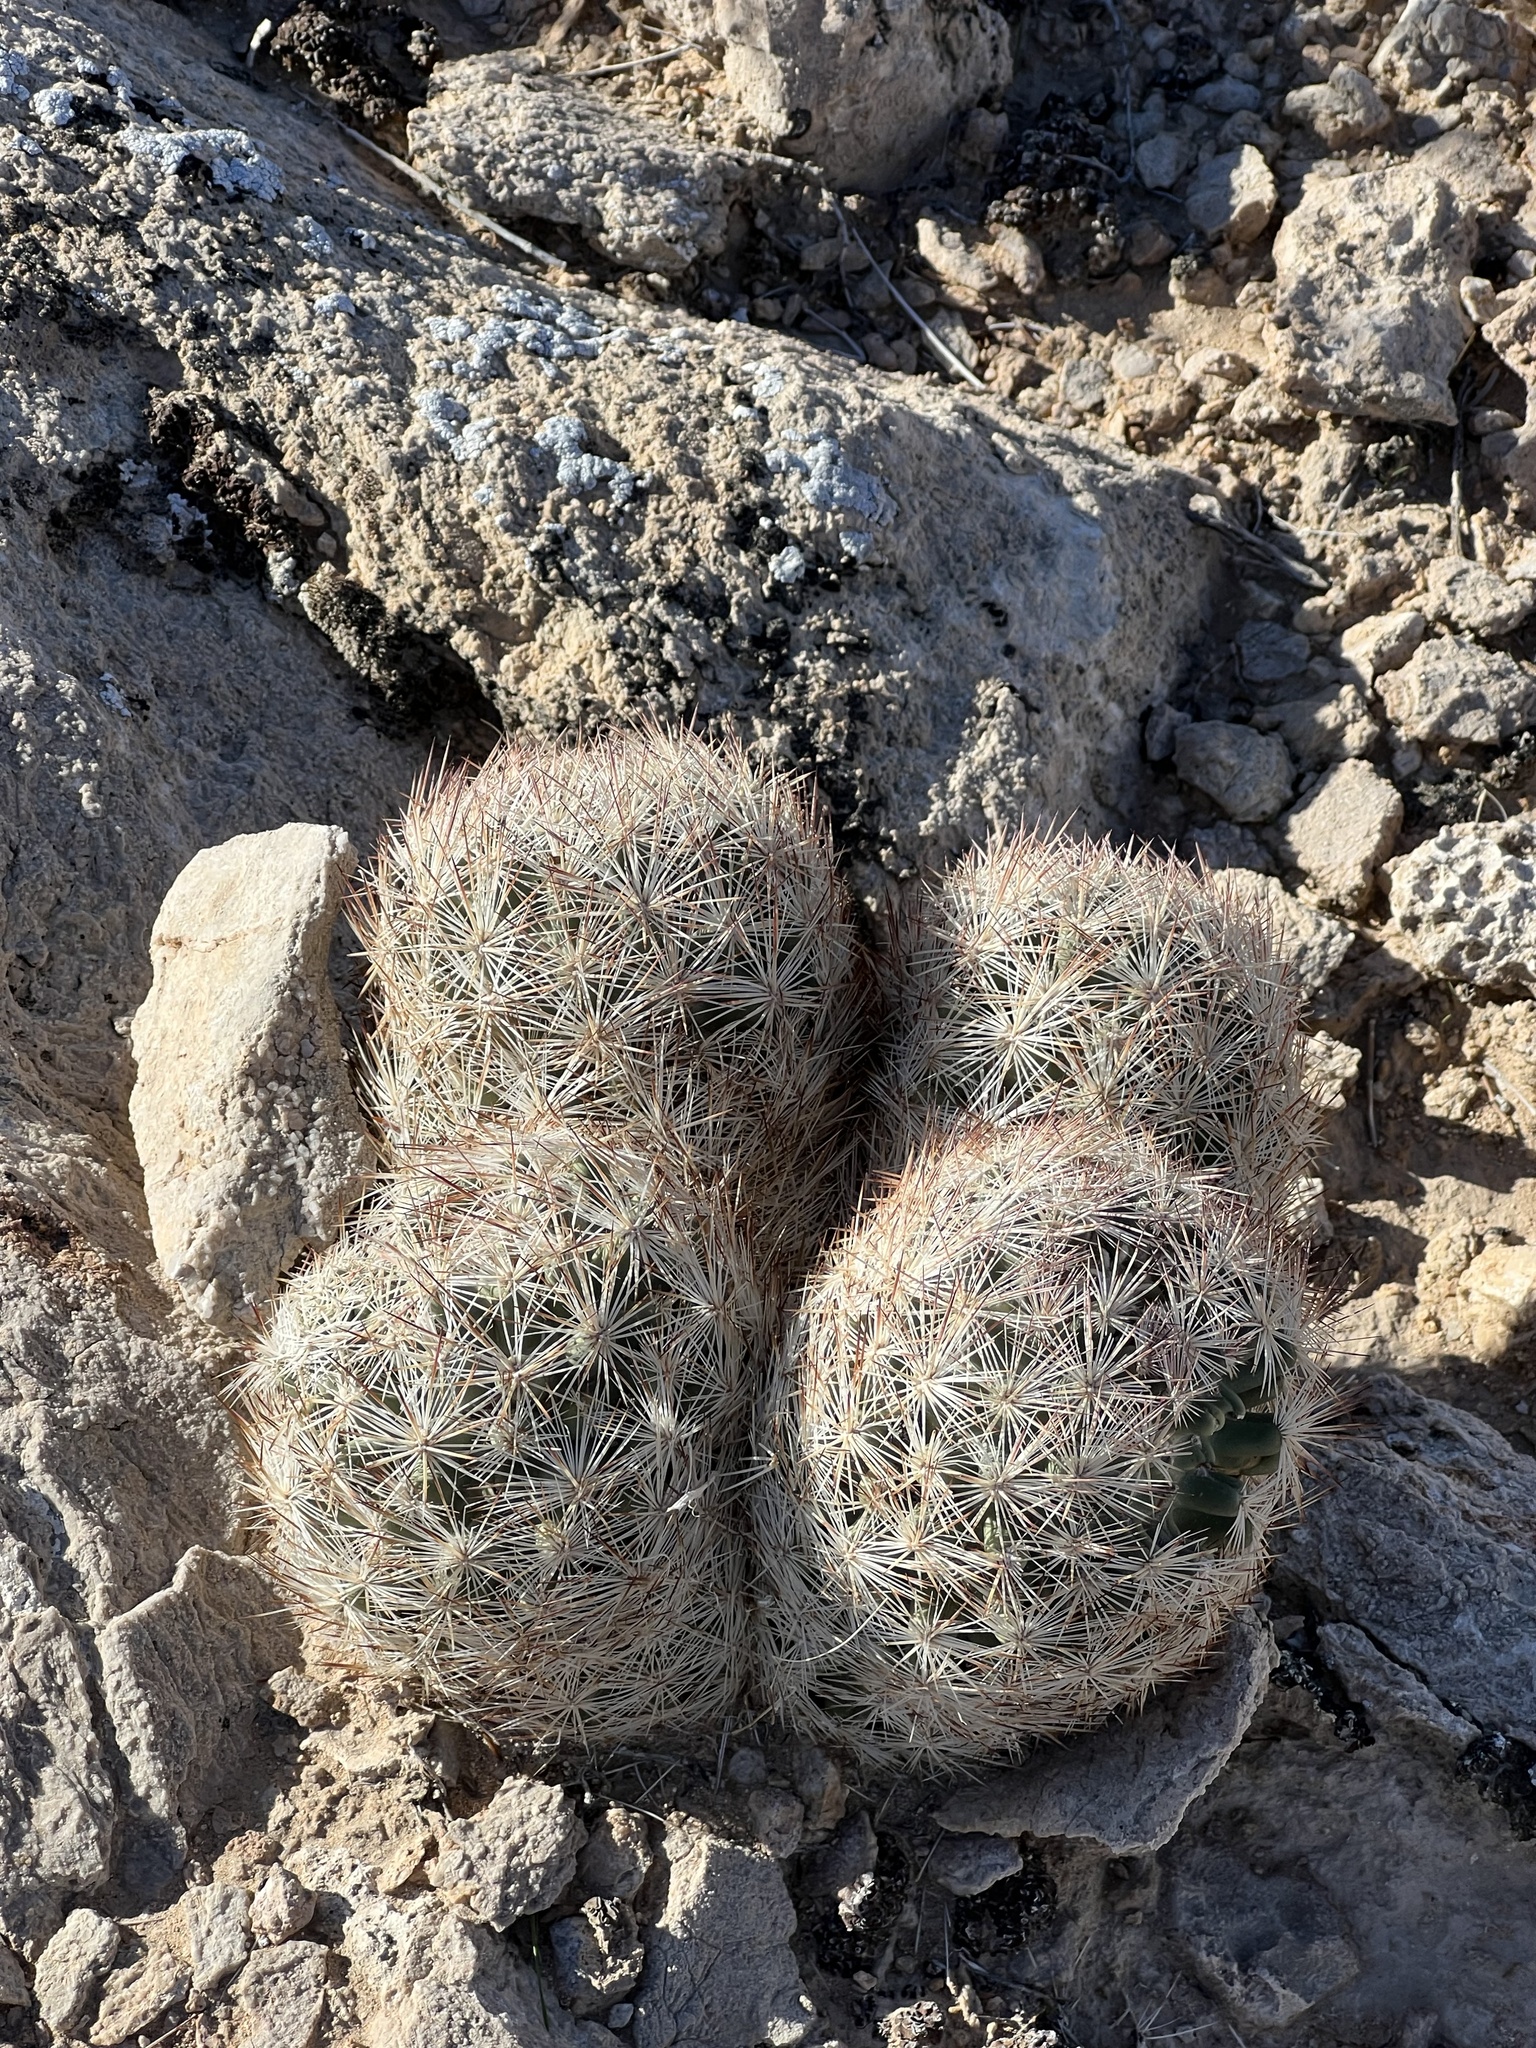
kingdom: Plantae
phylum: Tracheophyta
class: Magnoliopsida
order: Caryophyllales
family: Cactaceae
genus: Pelecyphora
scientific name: Pelecyphora dasyacantha
